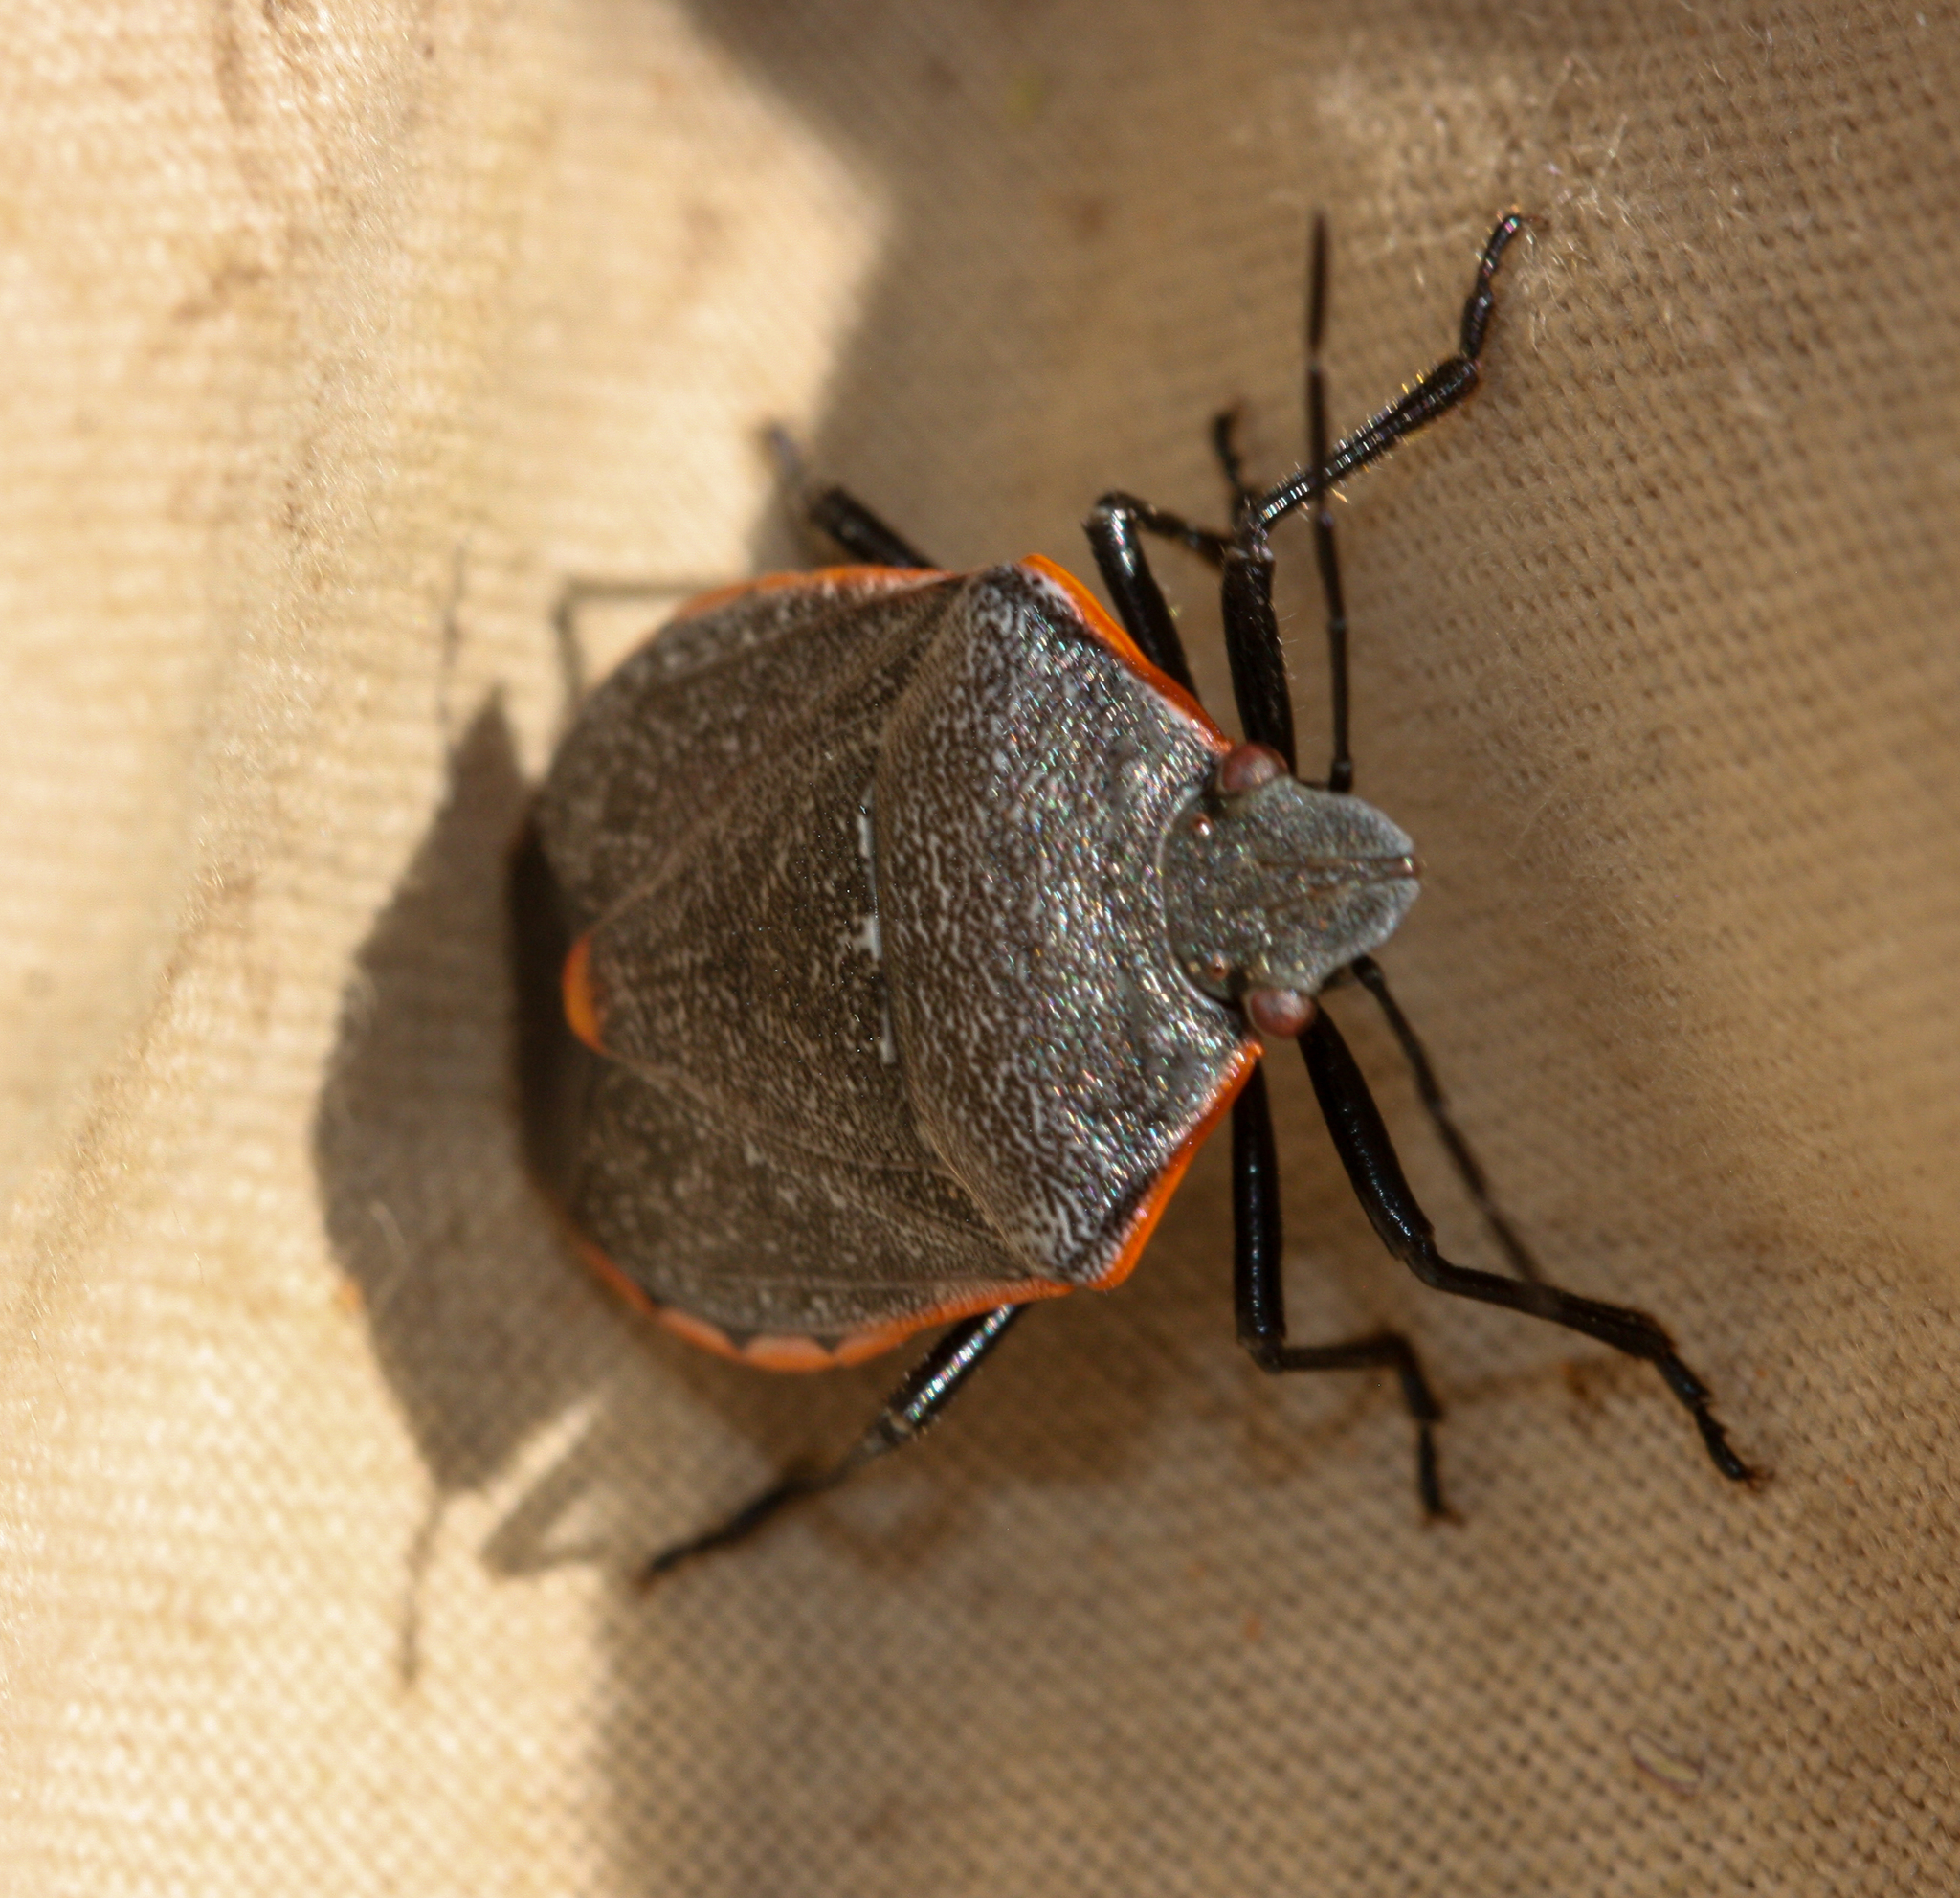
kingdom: Animalia
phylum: Arthropoda
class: Insecta
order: Hemiptera
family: Pentatomidae
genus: Chlorochroa
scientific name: Chlorochroa ligata
